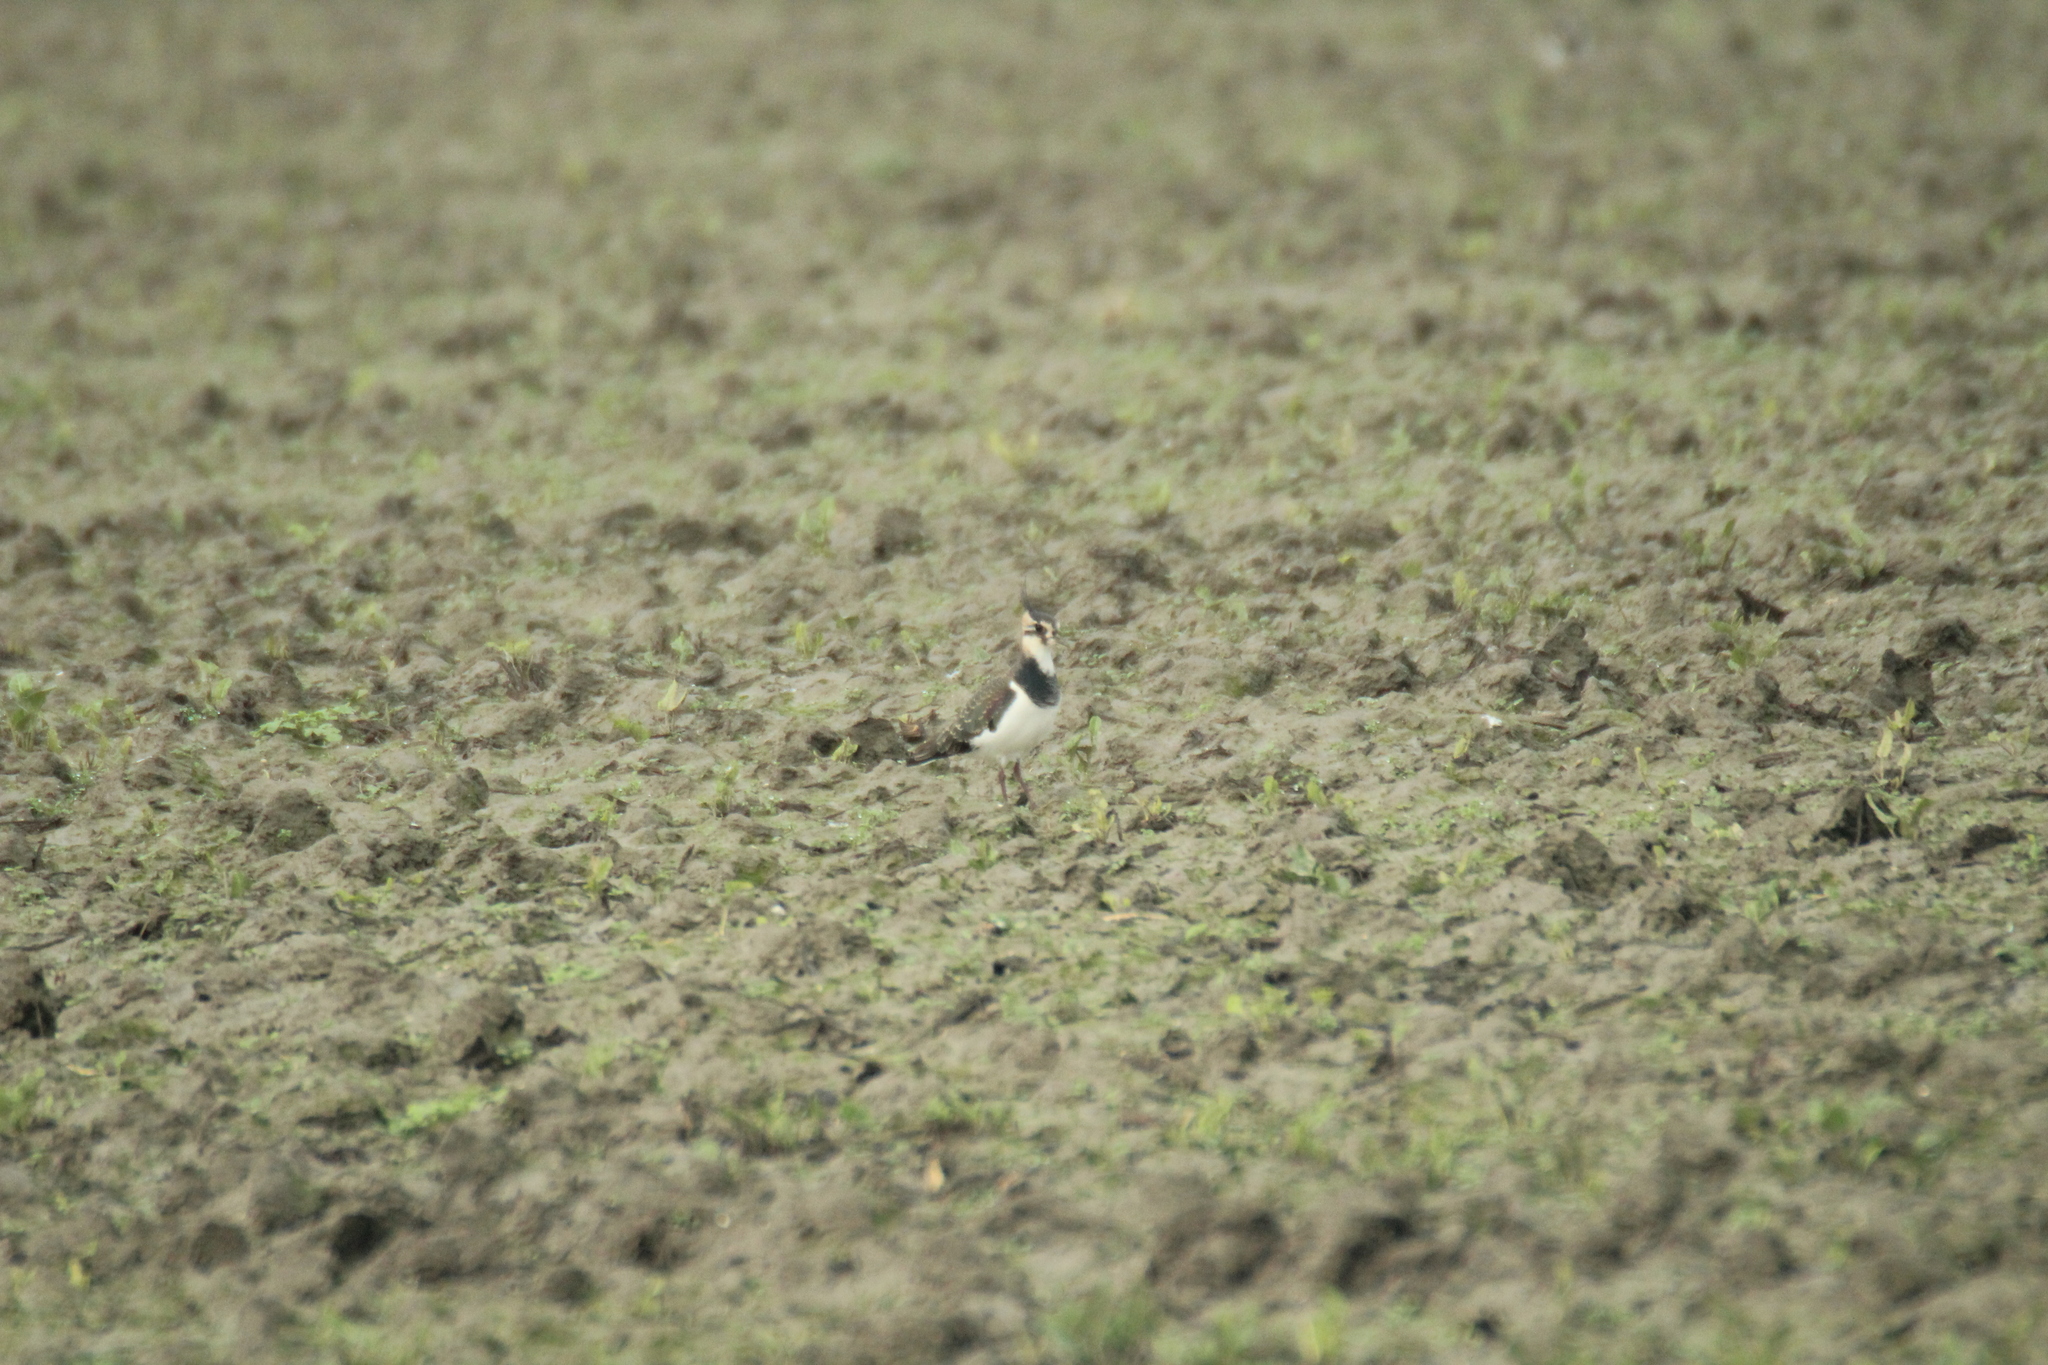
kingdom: Animalia
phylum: Chordata
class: Aves
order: Charadriiformes
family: Charadriidae
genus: Vanellus
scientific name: Vanellus vanellus
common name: Northern lapwing
